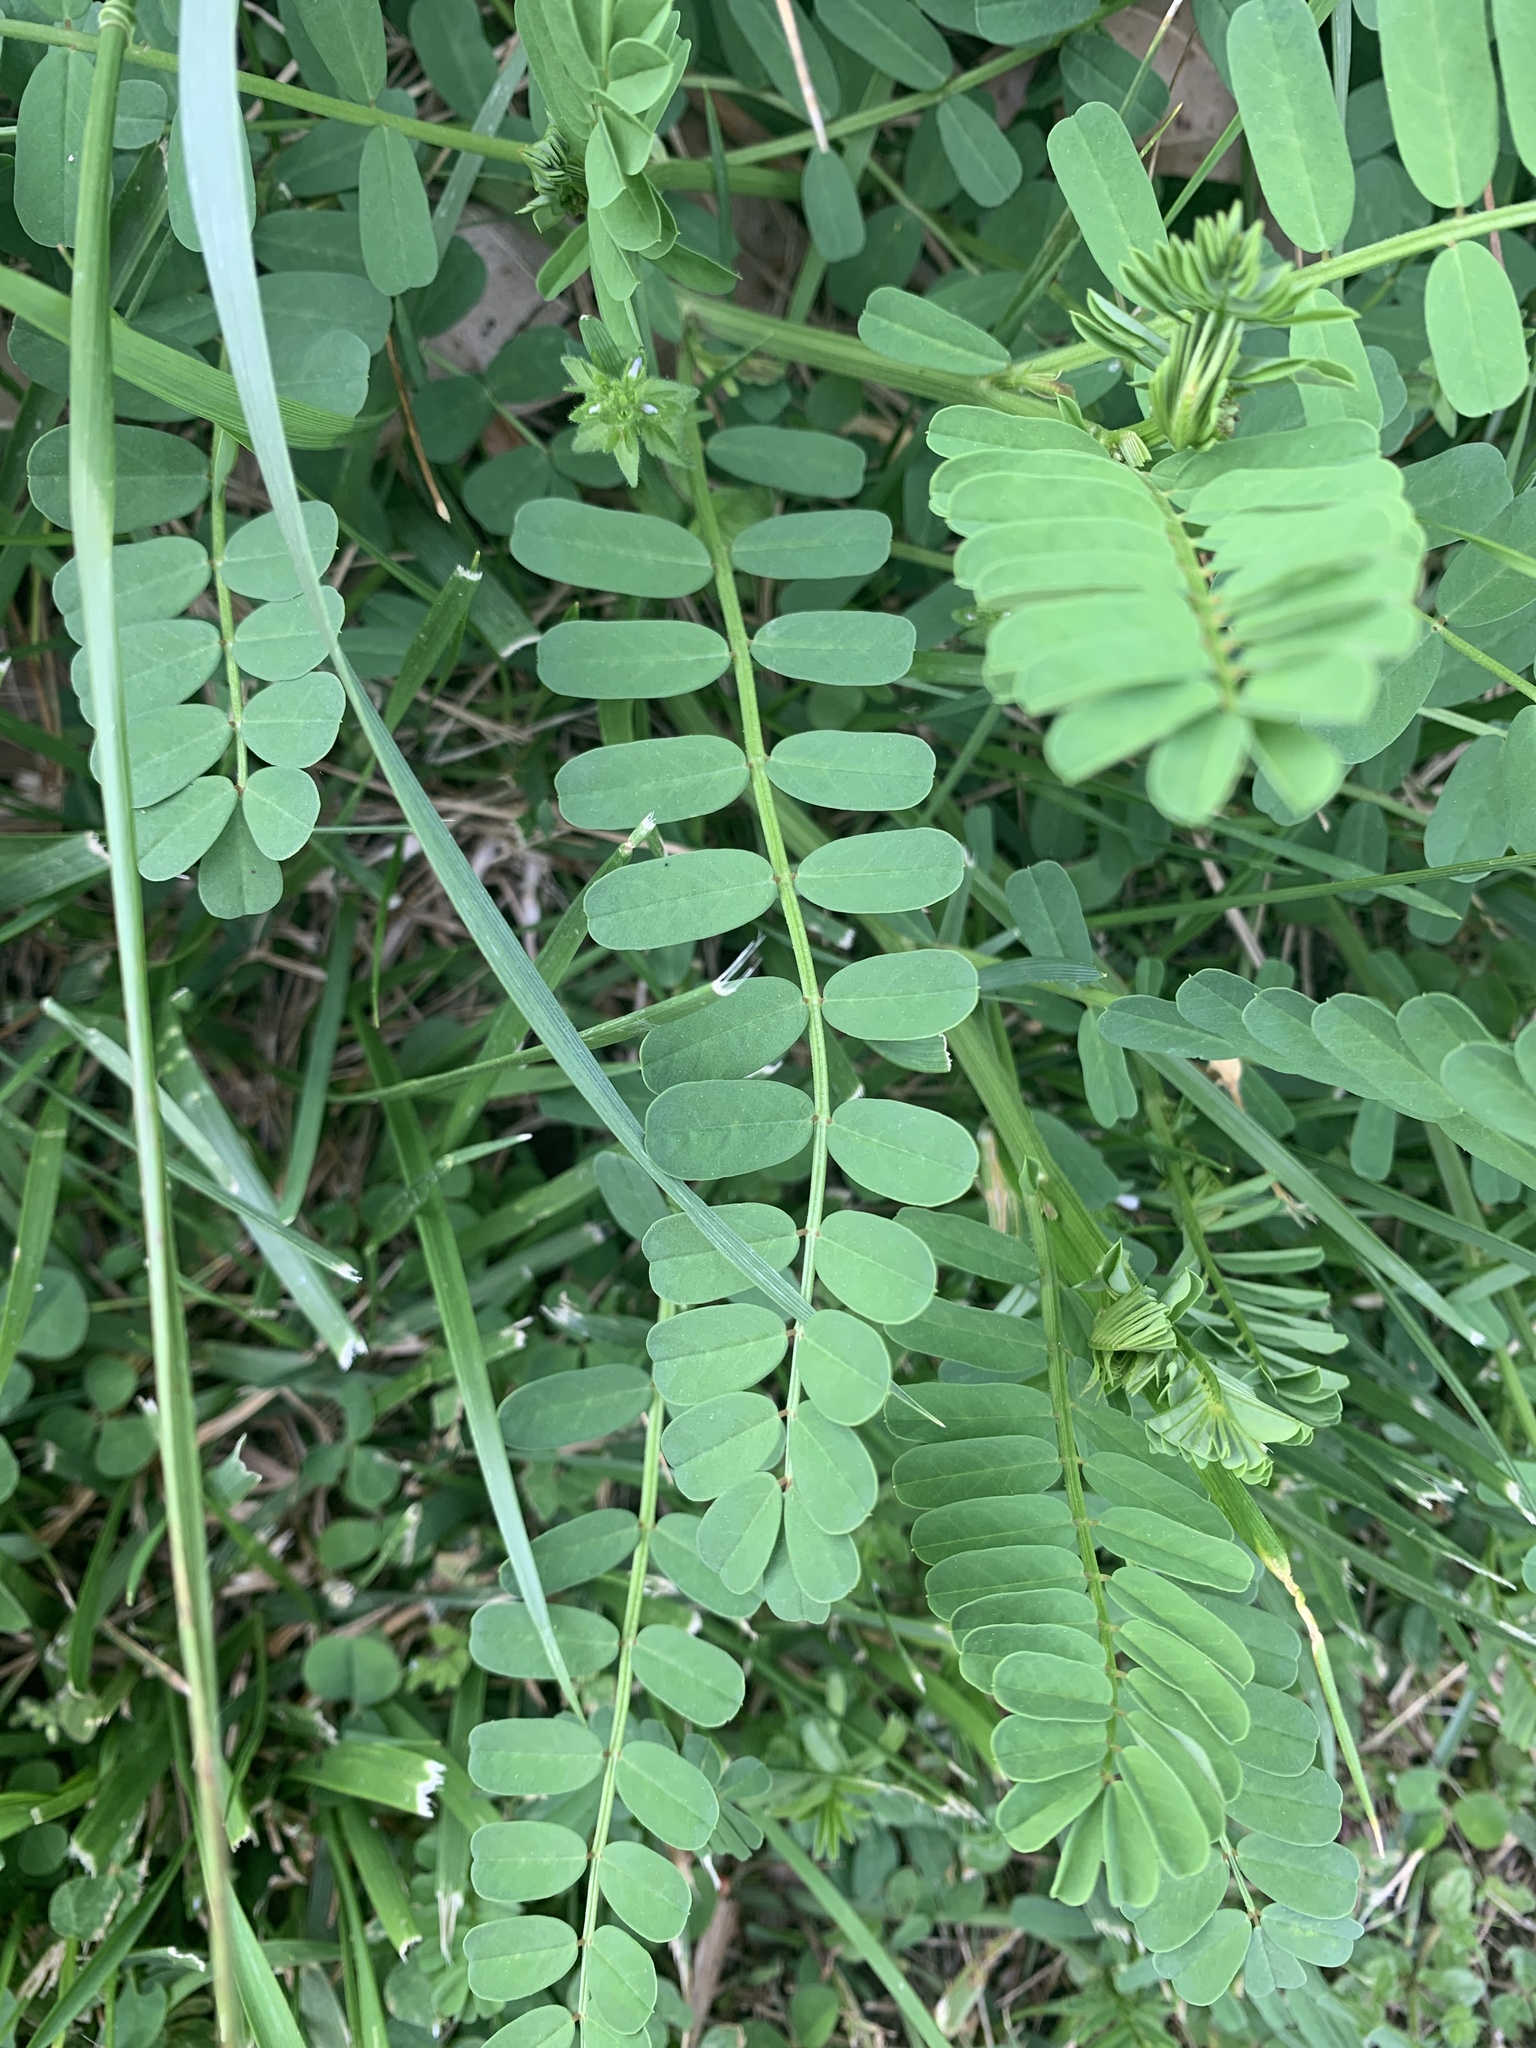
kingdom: Plantae
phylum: Tracheophyta
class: Magnoliopsida
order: Fabales
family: Fabaceae
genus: Coronilla
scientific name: Coronilla varia
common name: Crownvetch
